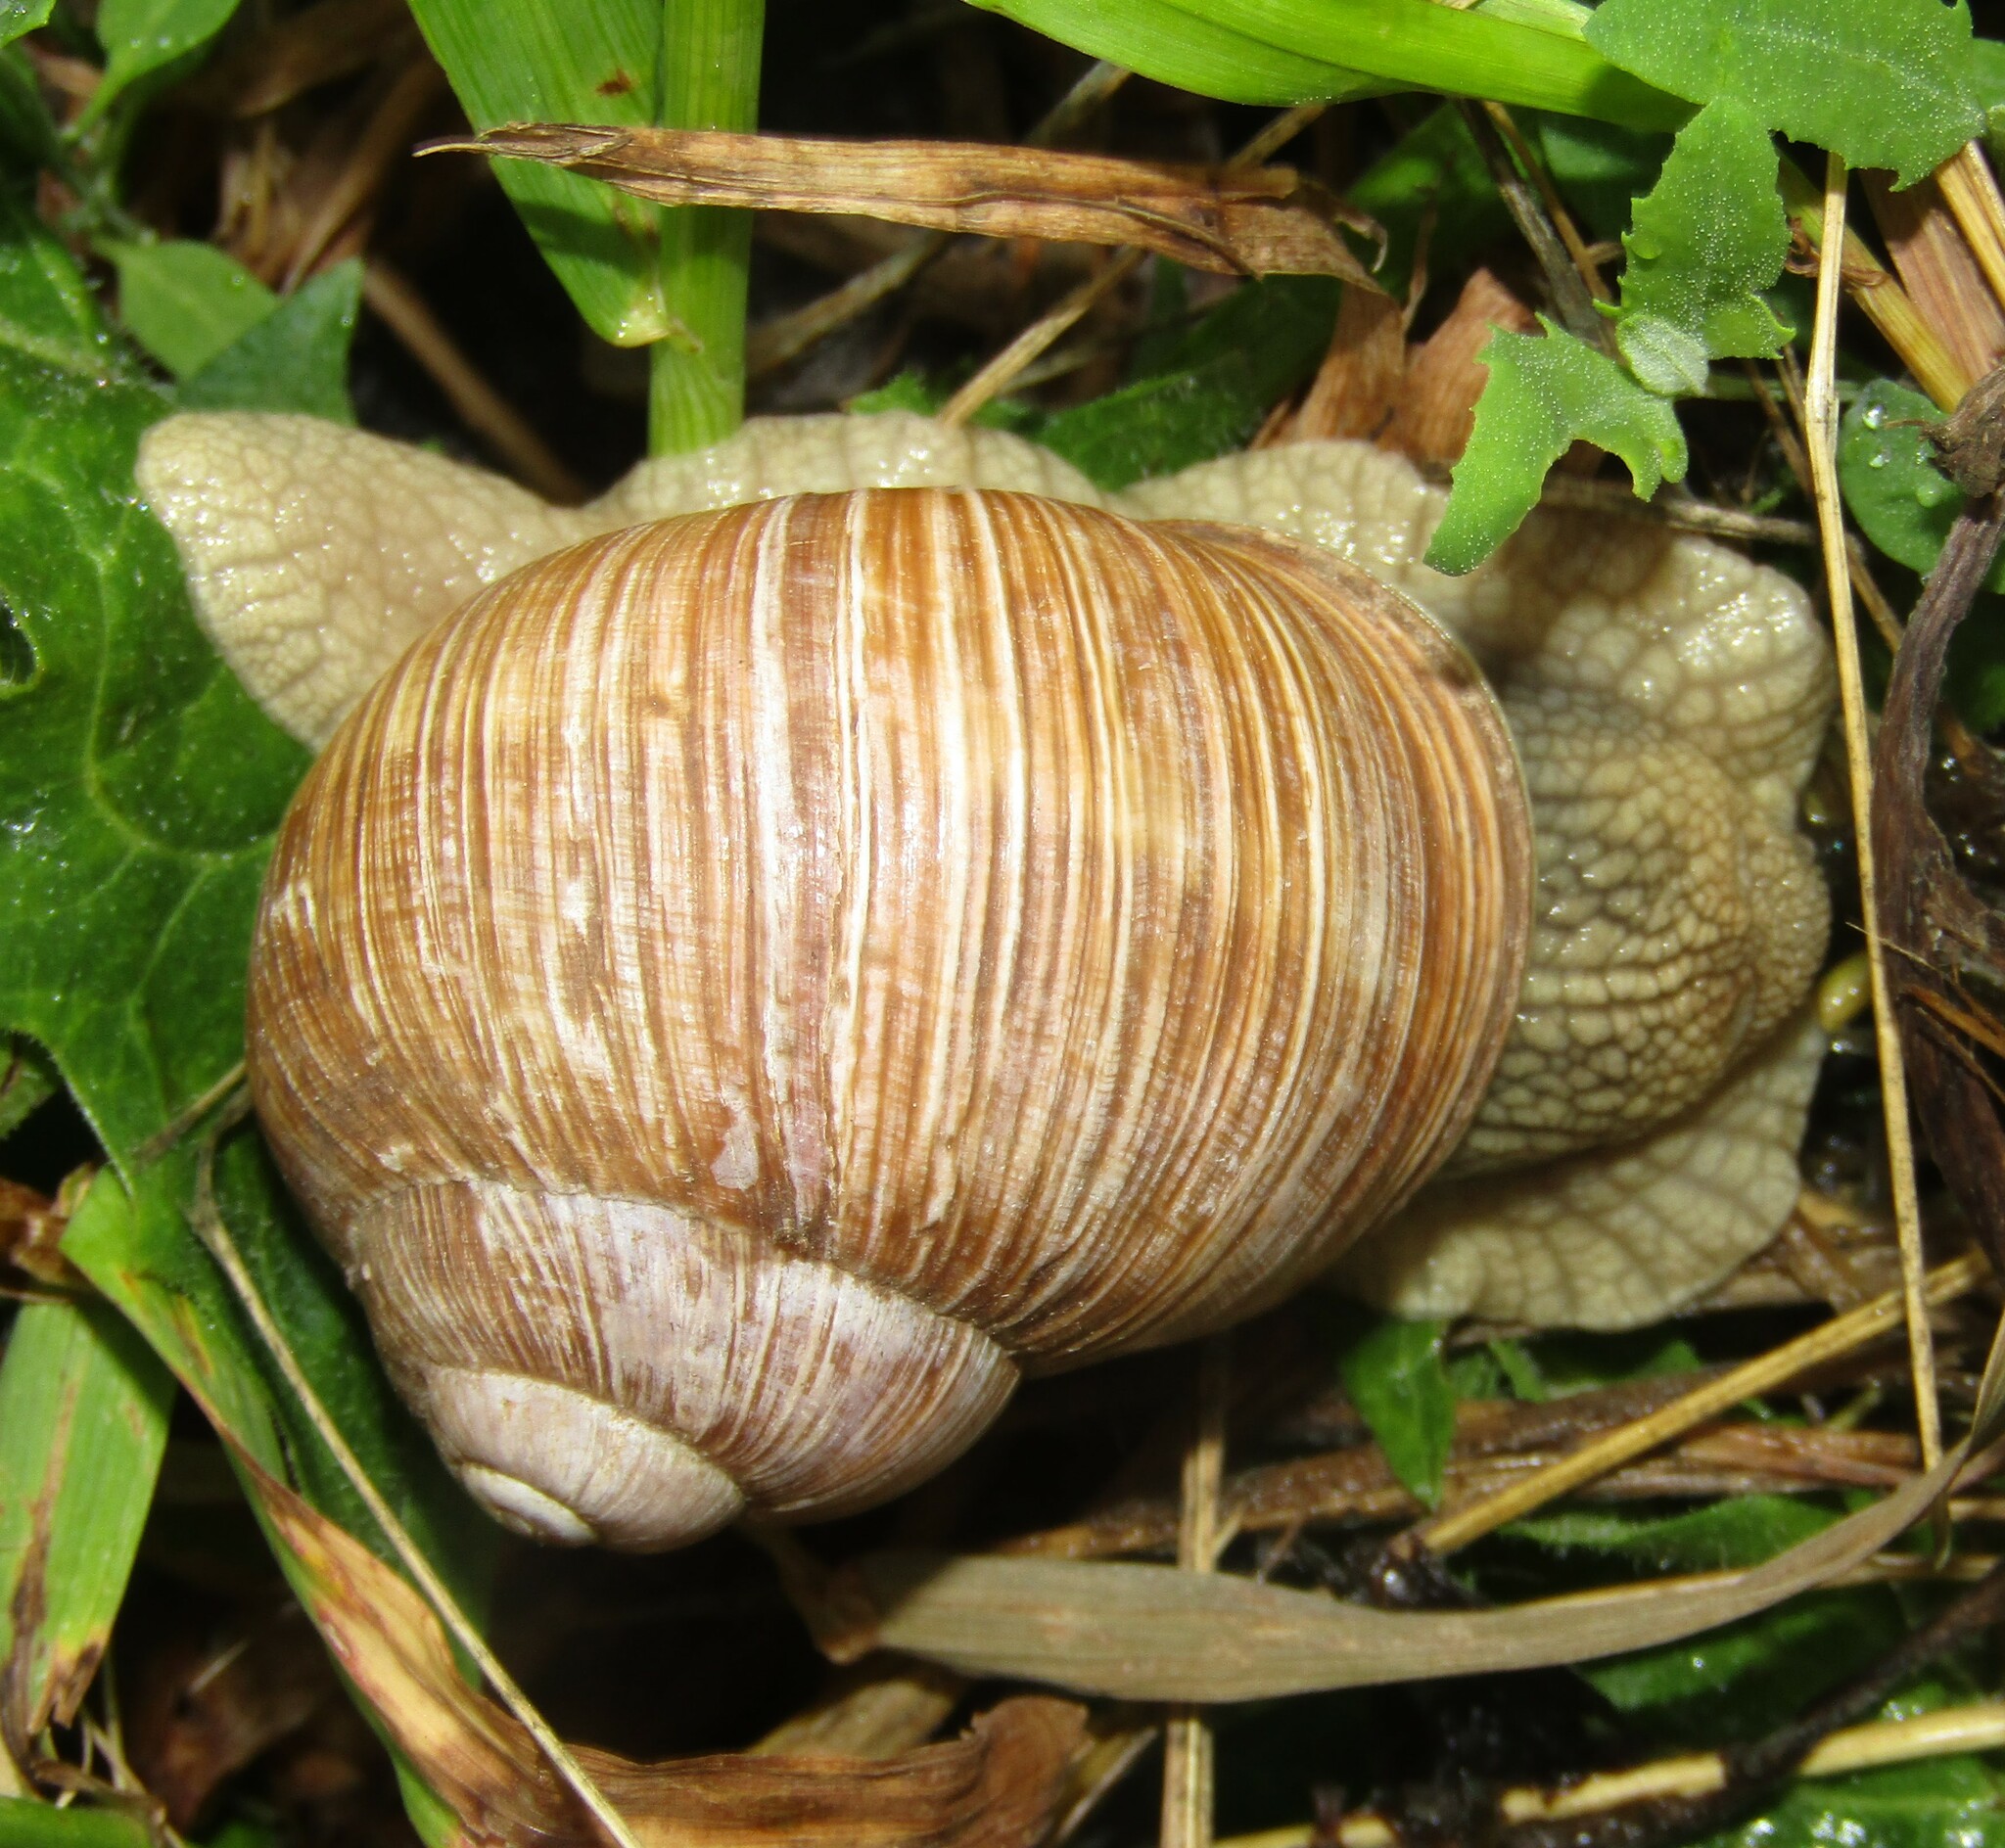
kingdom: Animalia
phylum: Mollusca
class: Gastropoda
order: Stylommatophora
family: Helicidae
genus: Helix
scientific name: Helix pomatia
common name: Roman snail
